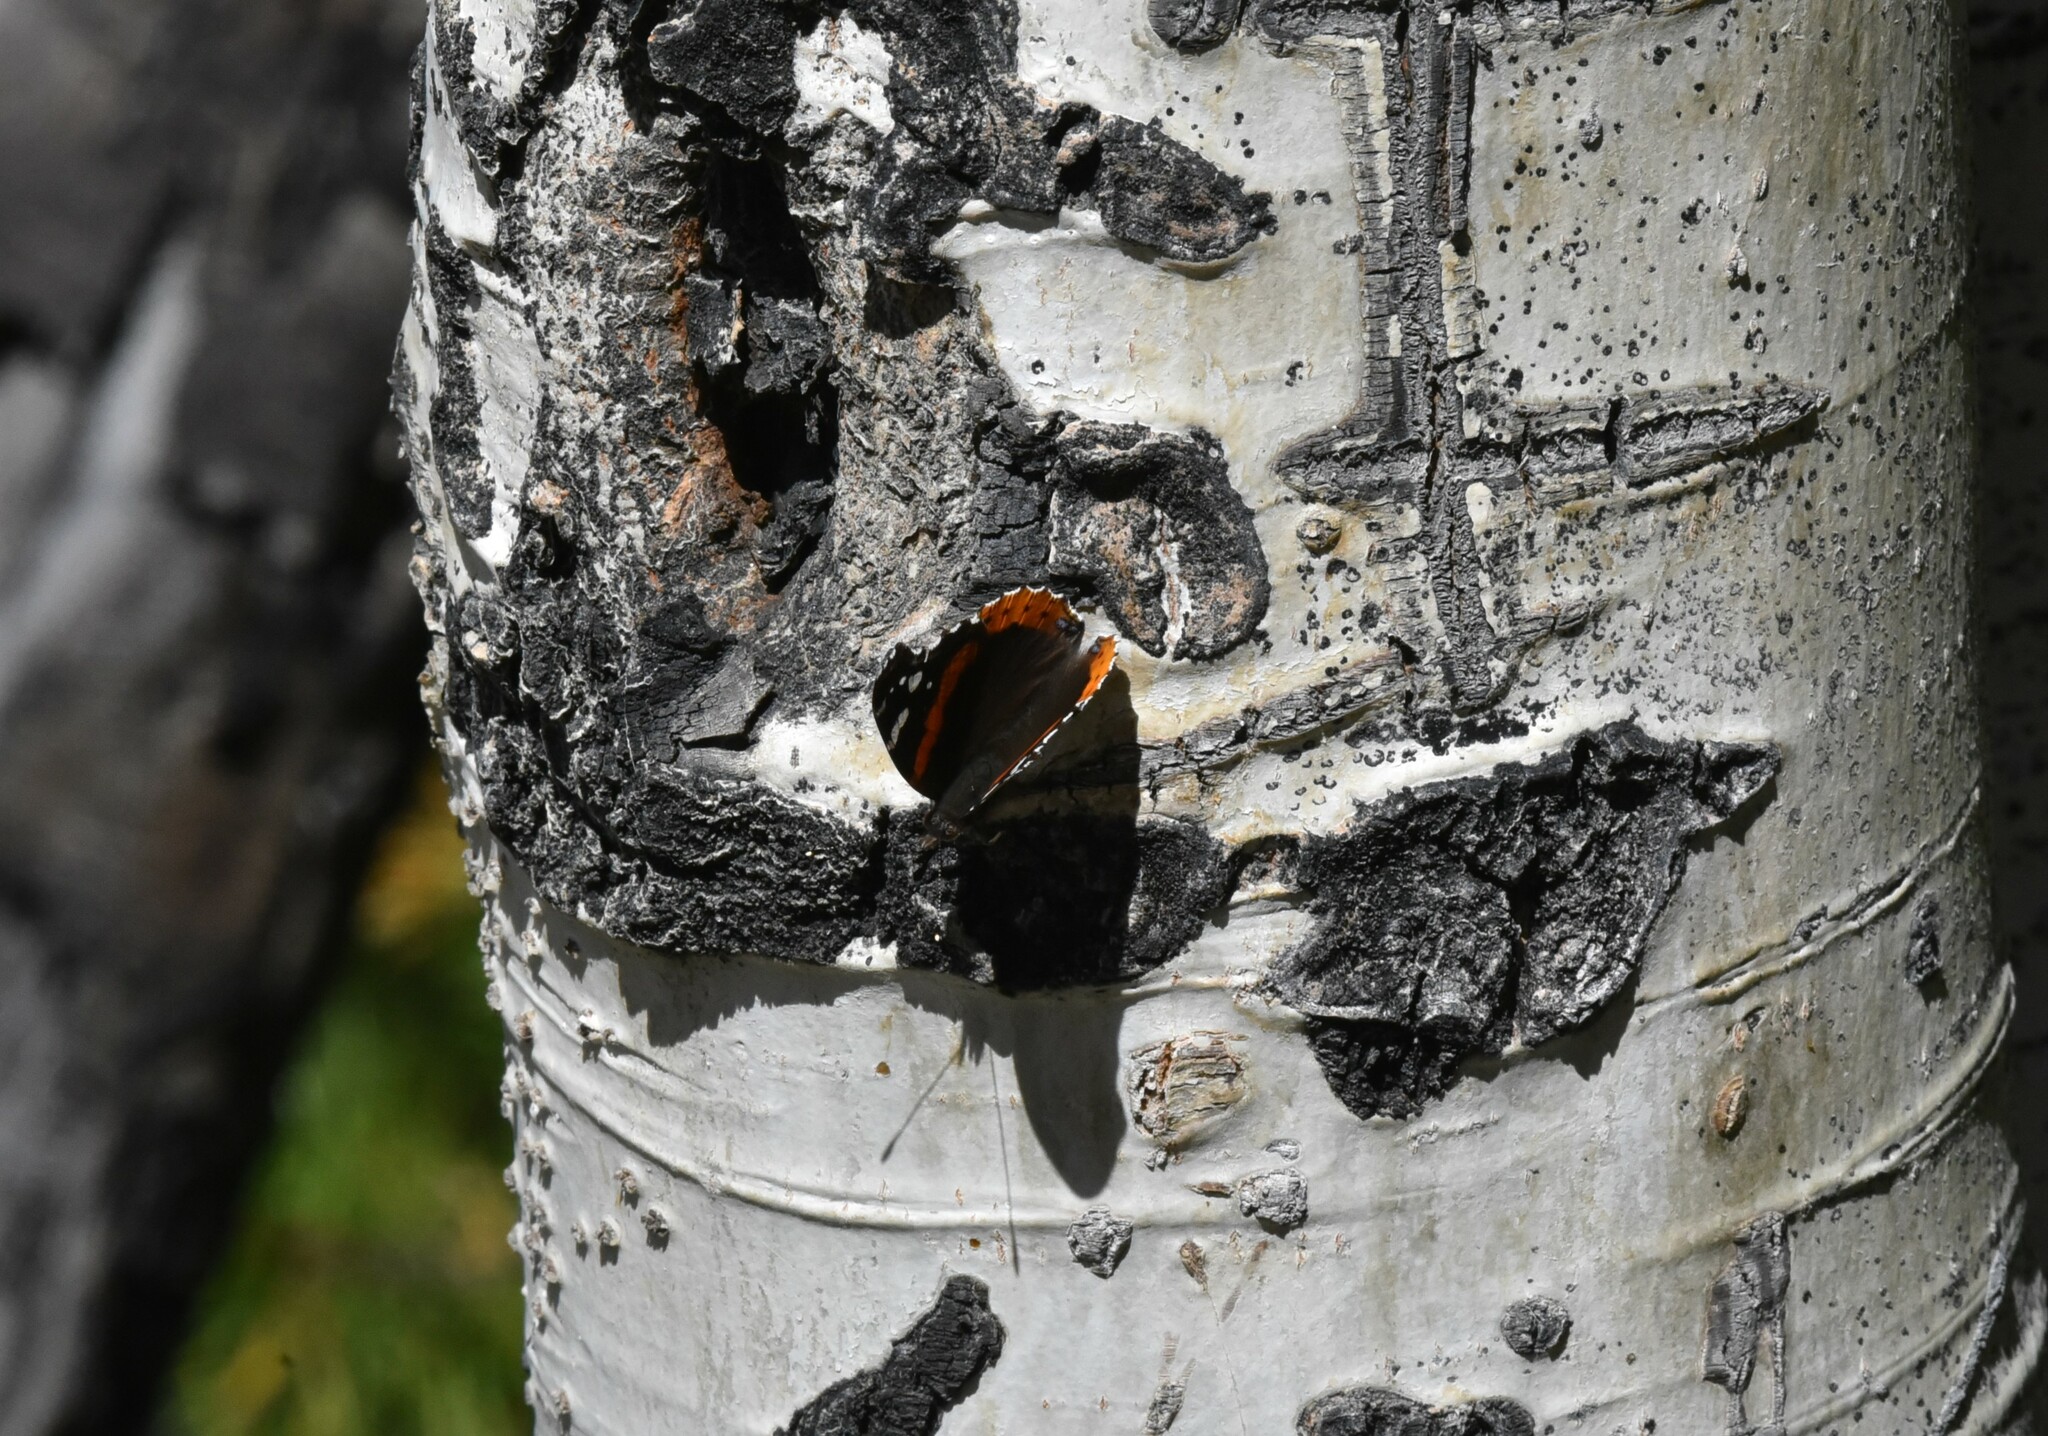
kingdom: Animalia
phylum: Arthropoda
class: Insecta
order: Lepidoptera
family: Nymphalidae
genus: Vanessa
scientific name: Vanessa atalanta
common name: Red admiral
